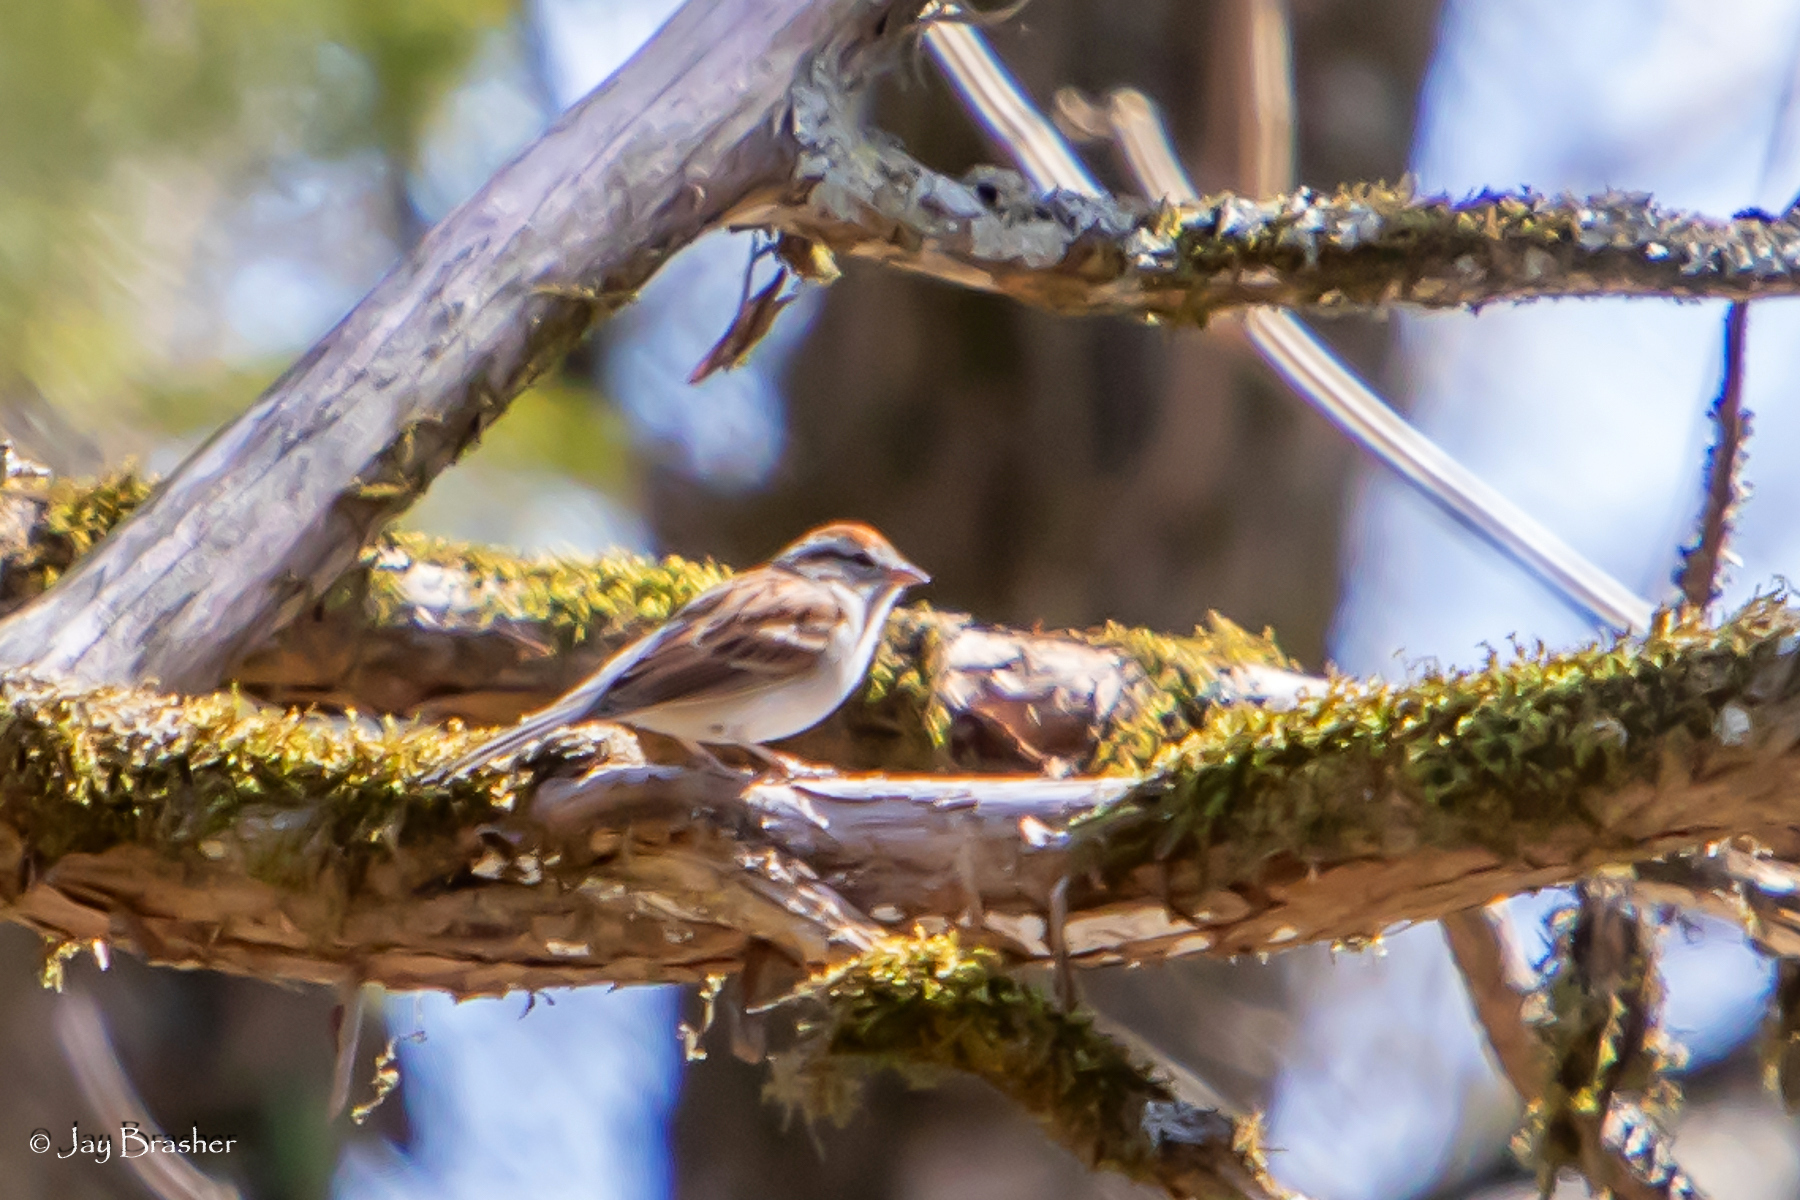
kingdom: Animalia
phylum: Chordata
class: Aves
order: Passeriformes
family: Passerellidae
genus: Spizella
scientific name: Spizella passerina
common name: Chipping sparrow
